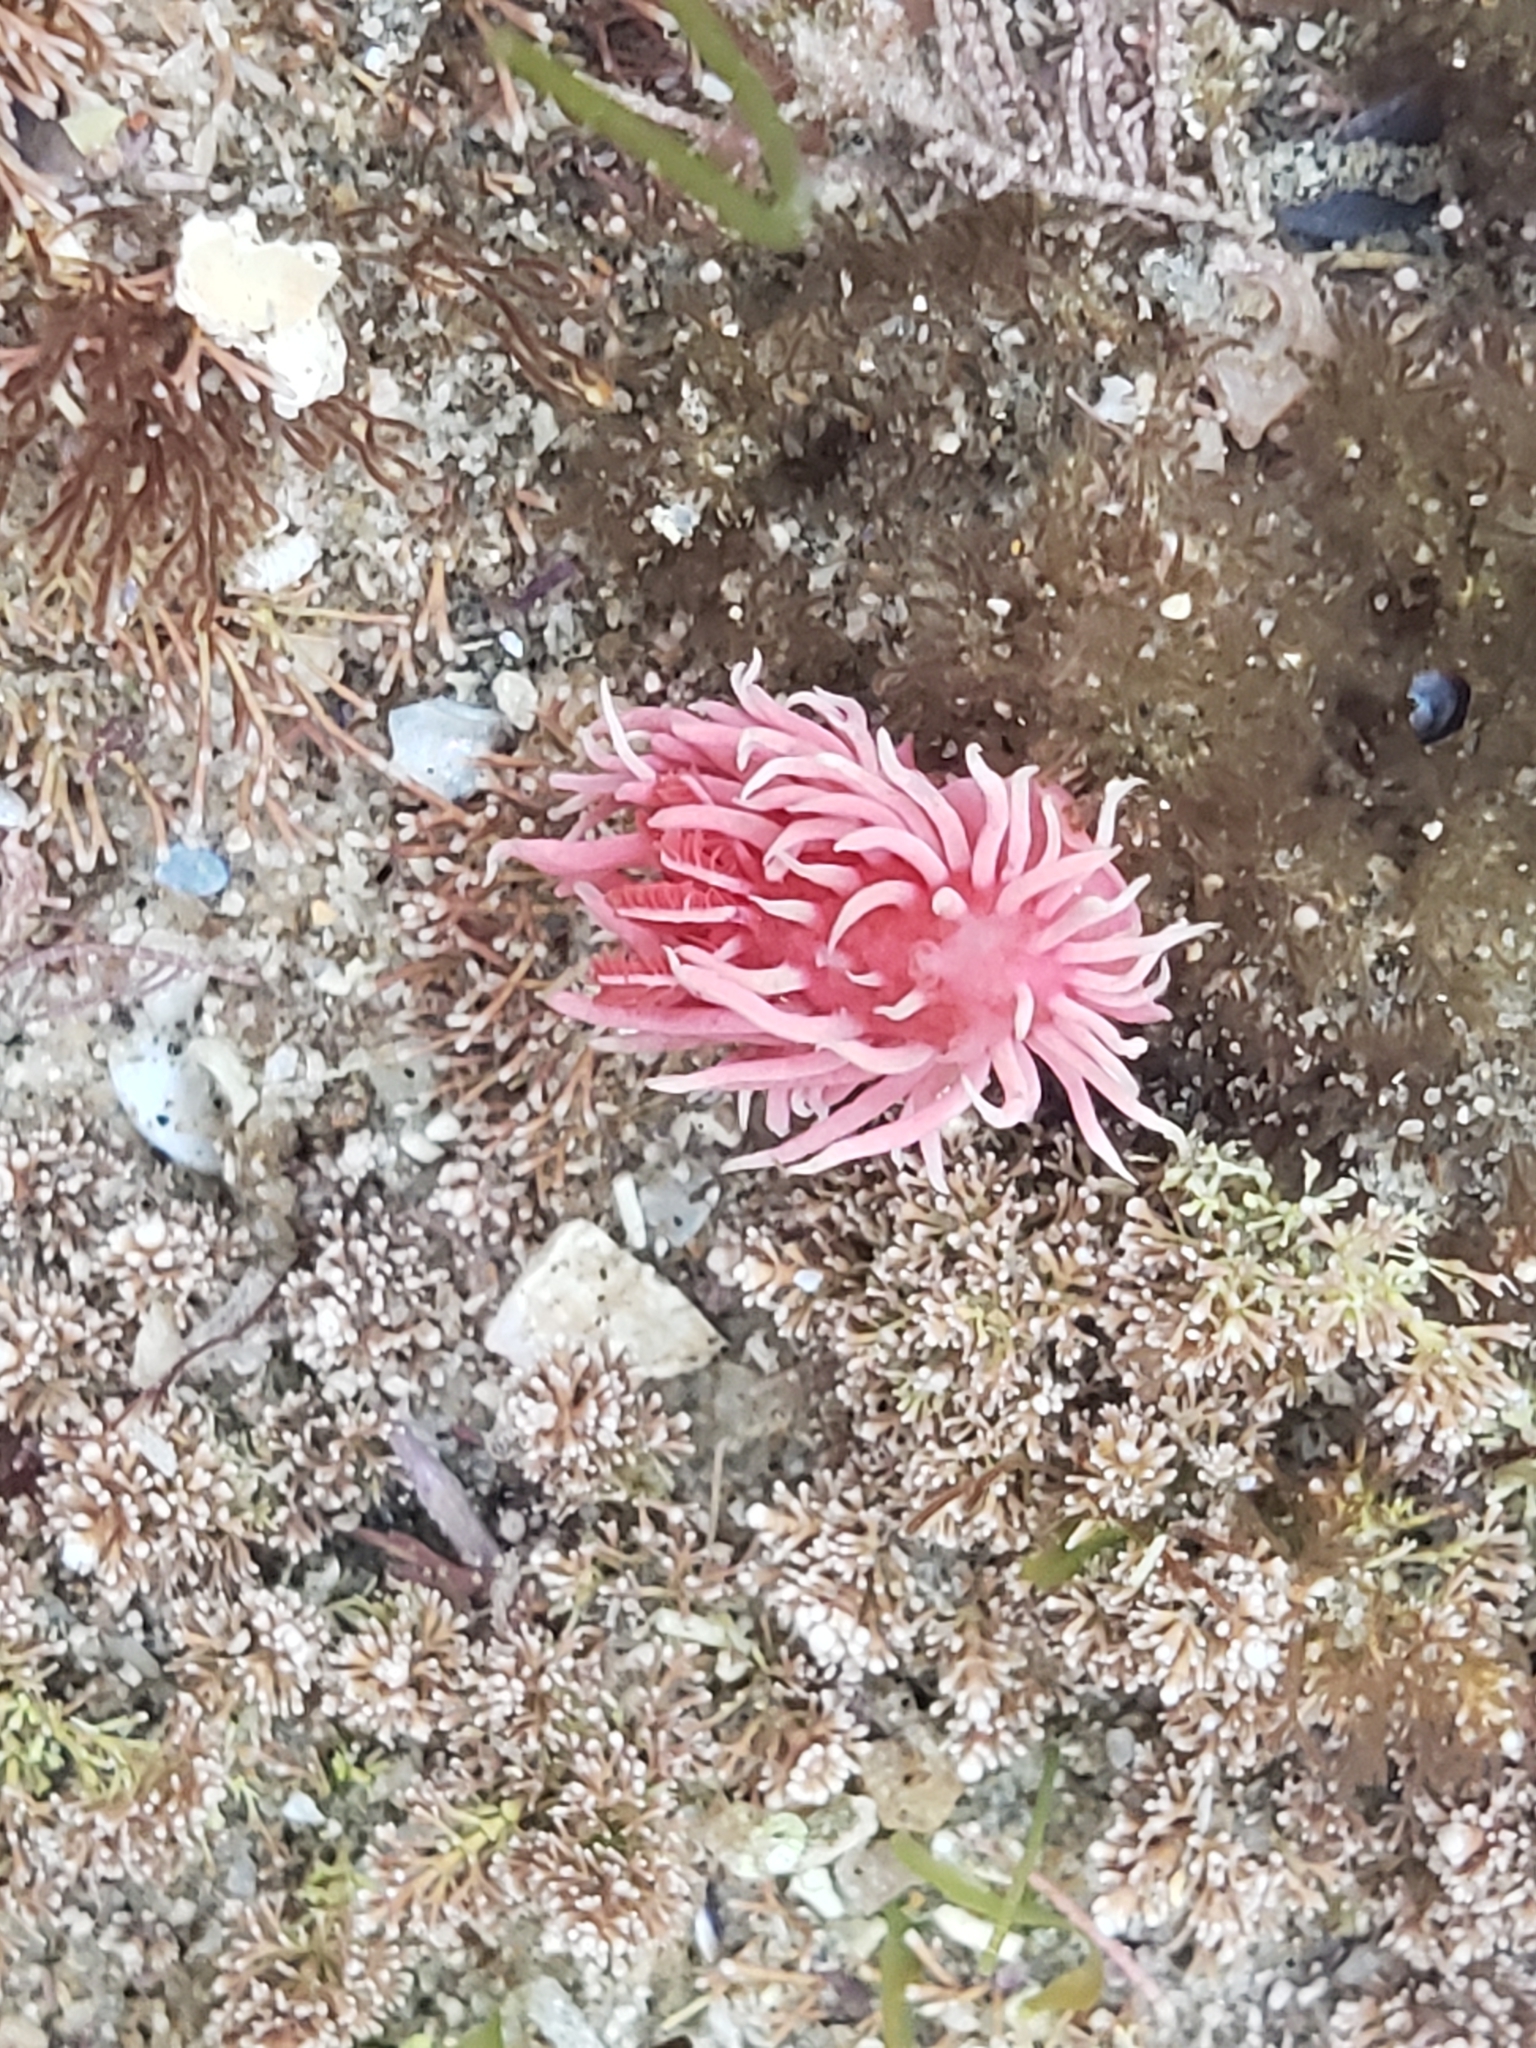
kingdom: Animalia
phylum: Mollusca
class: Gastropoda
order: Nudibranchia
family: Goniodorididae
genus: Okenia
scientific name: Okenia
